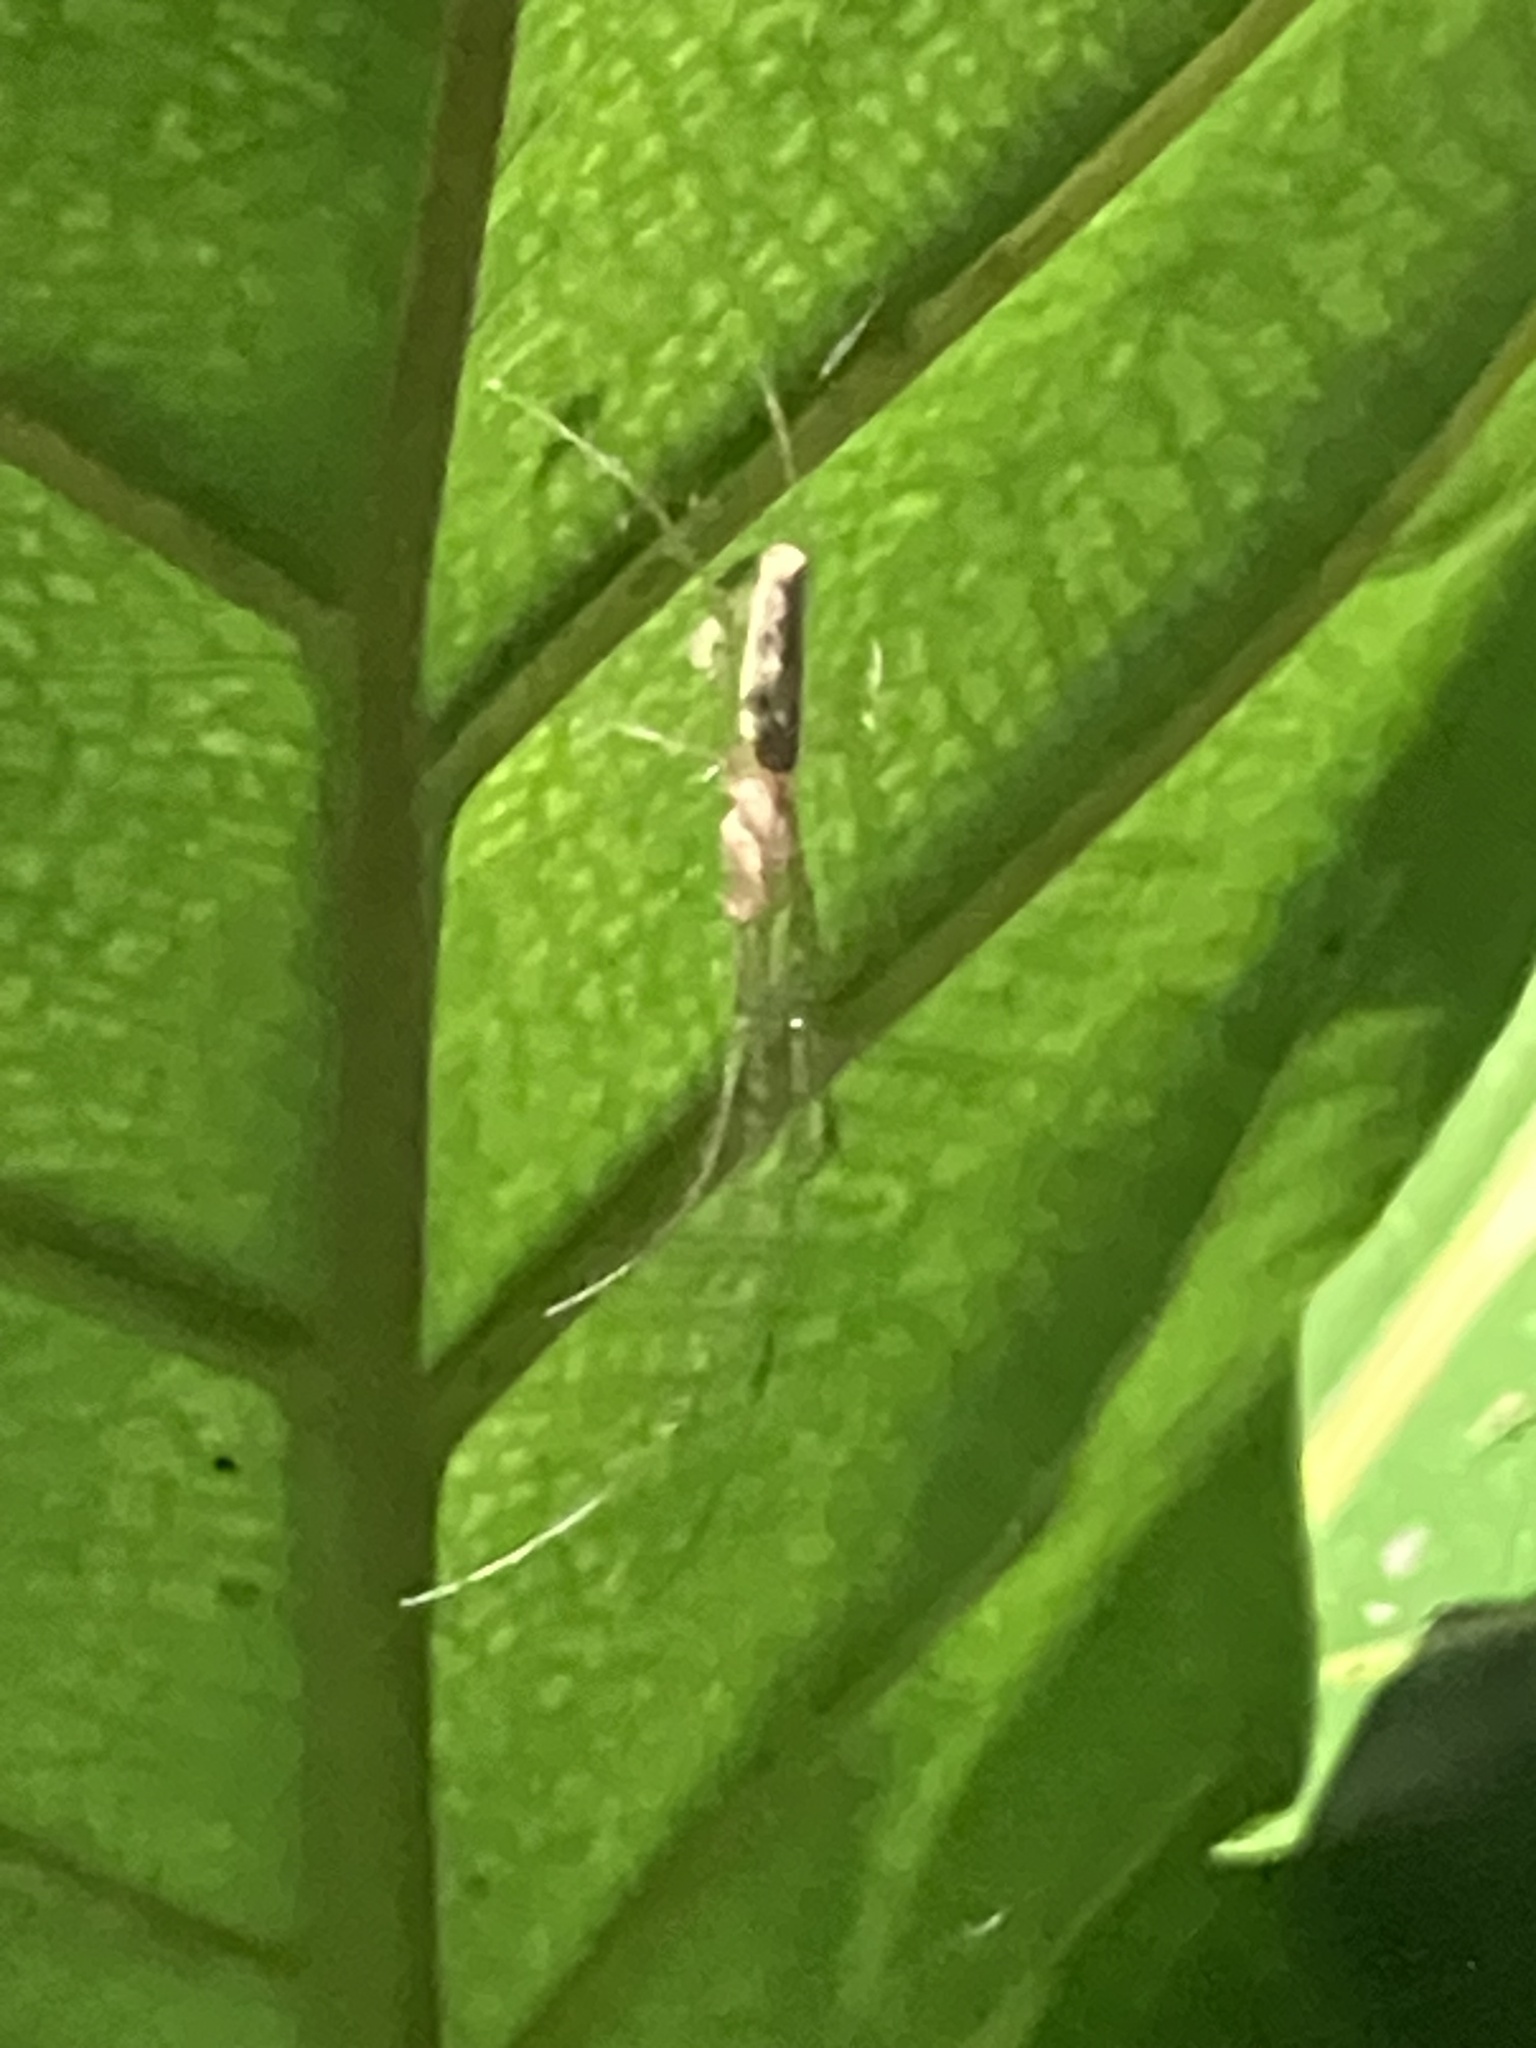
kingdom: Animalia
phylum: Arthropoda
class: Arachnida
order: Araneae
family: Tetragnathidae
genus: Tetragnatha
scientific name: Tetragnatha
